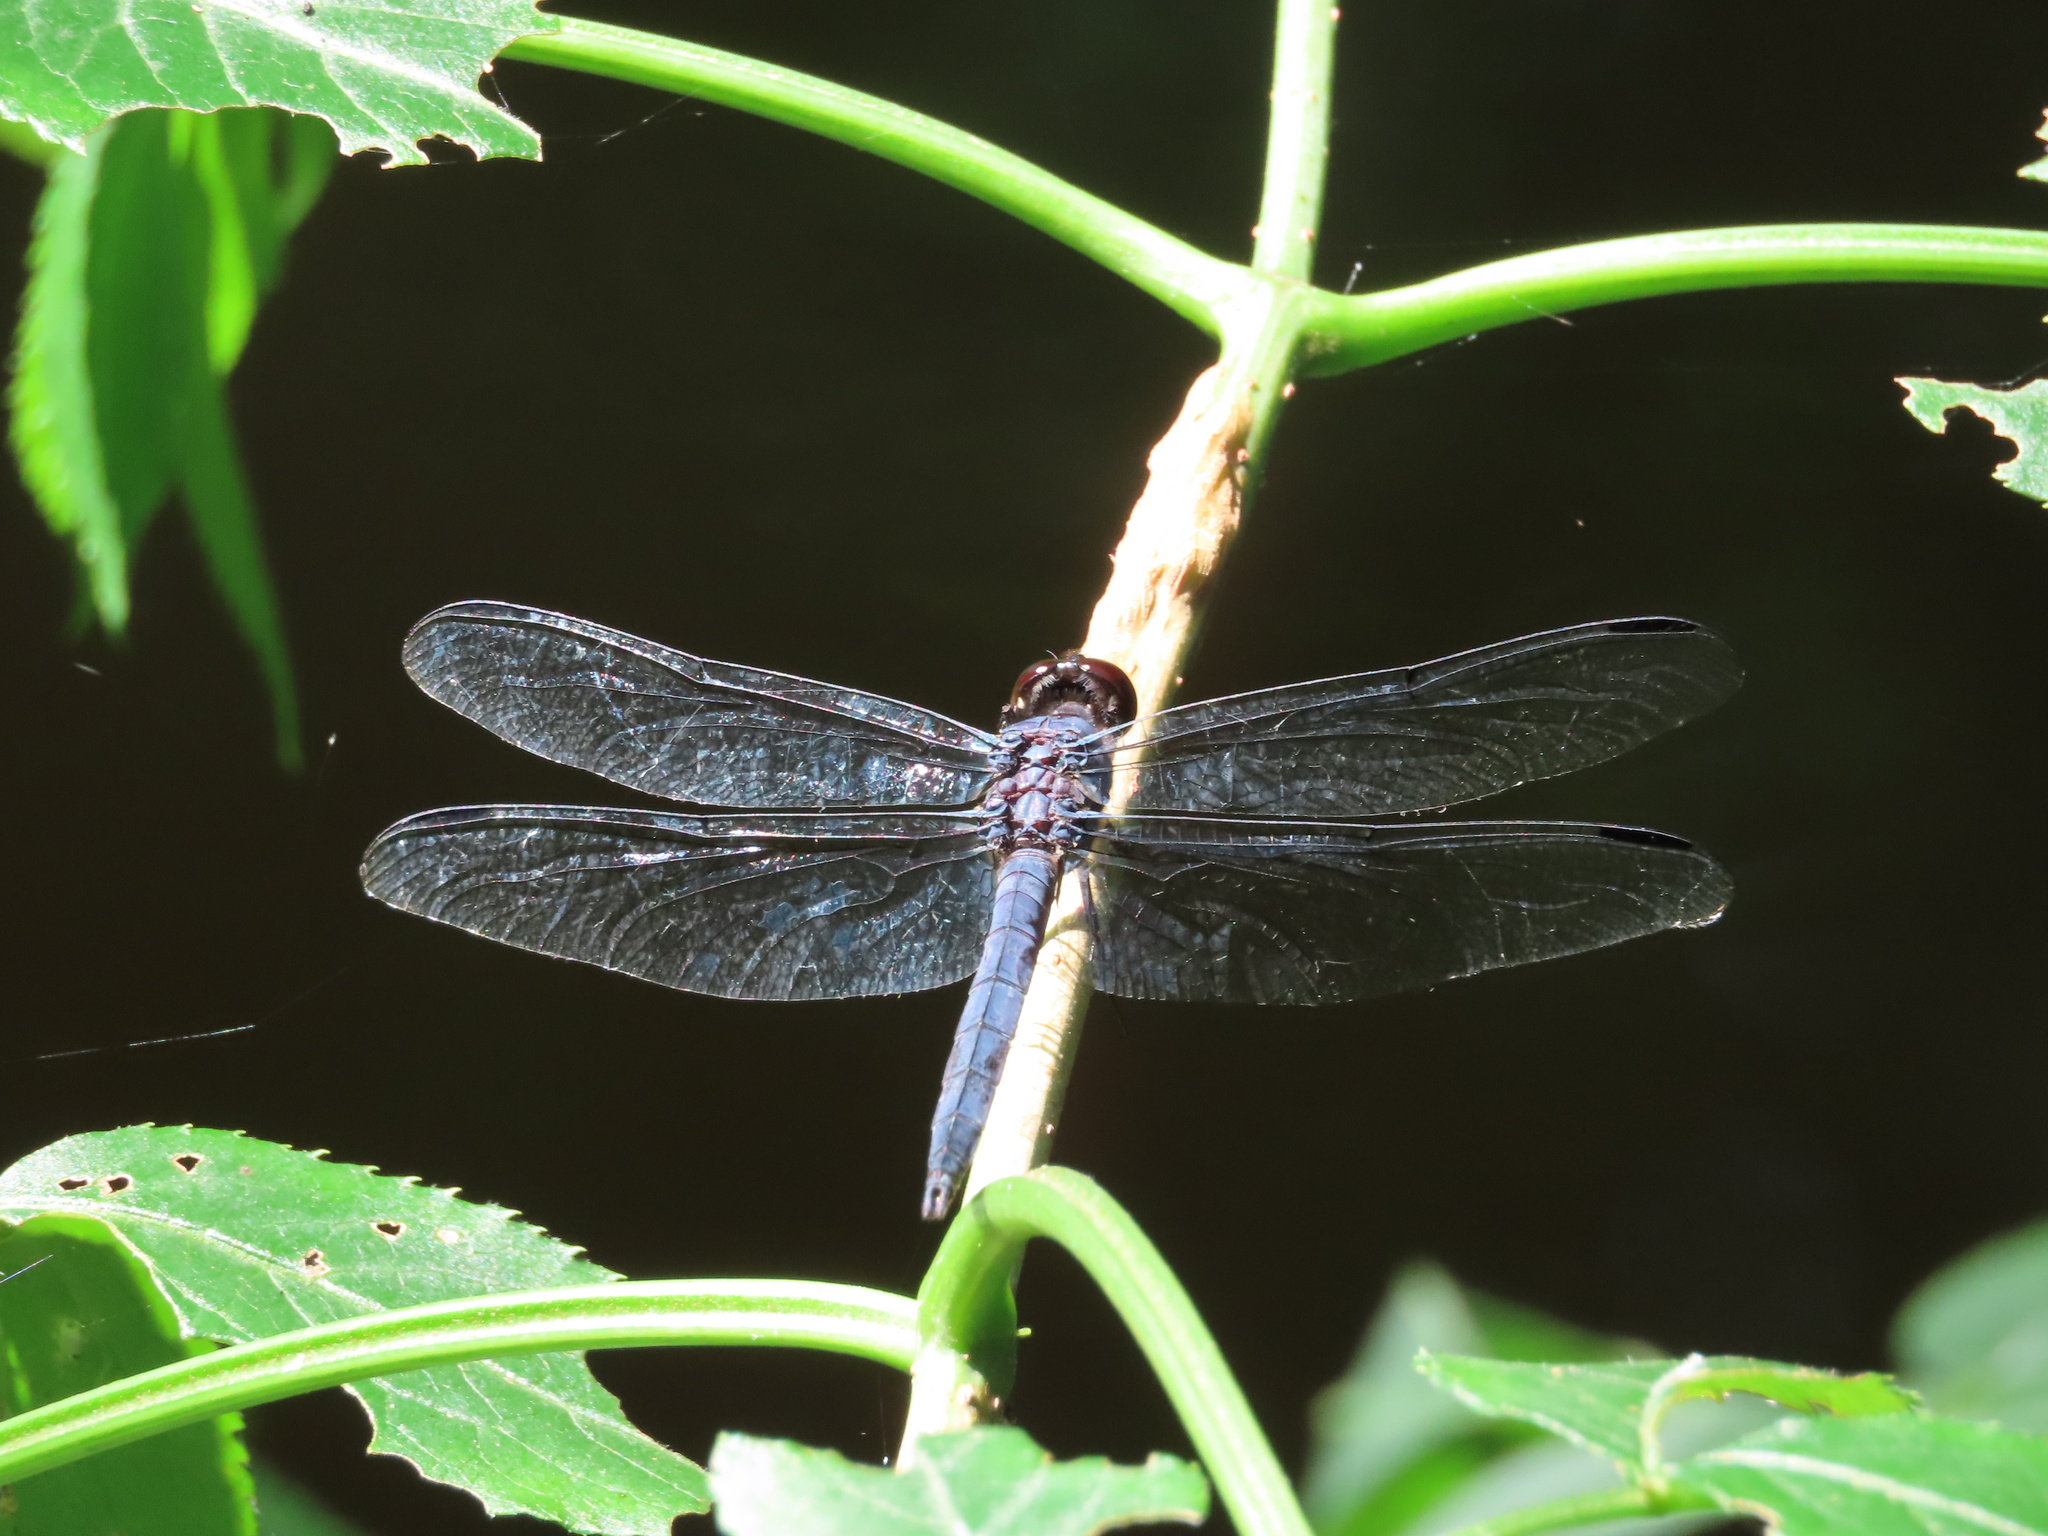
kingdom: Animalia
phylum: Arthropoda
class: Insecta
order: Odonata
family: Libellulidae
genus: Libellula
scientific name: Libellula incesta
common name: Slaty skimmer
